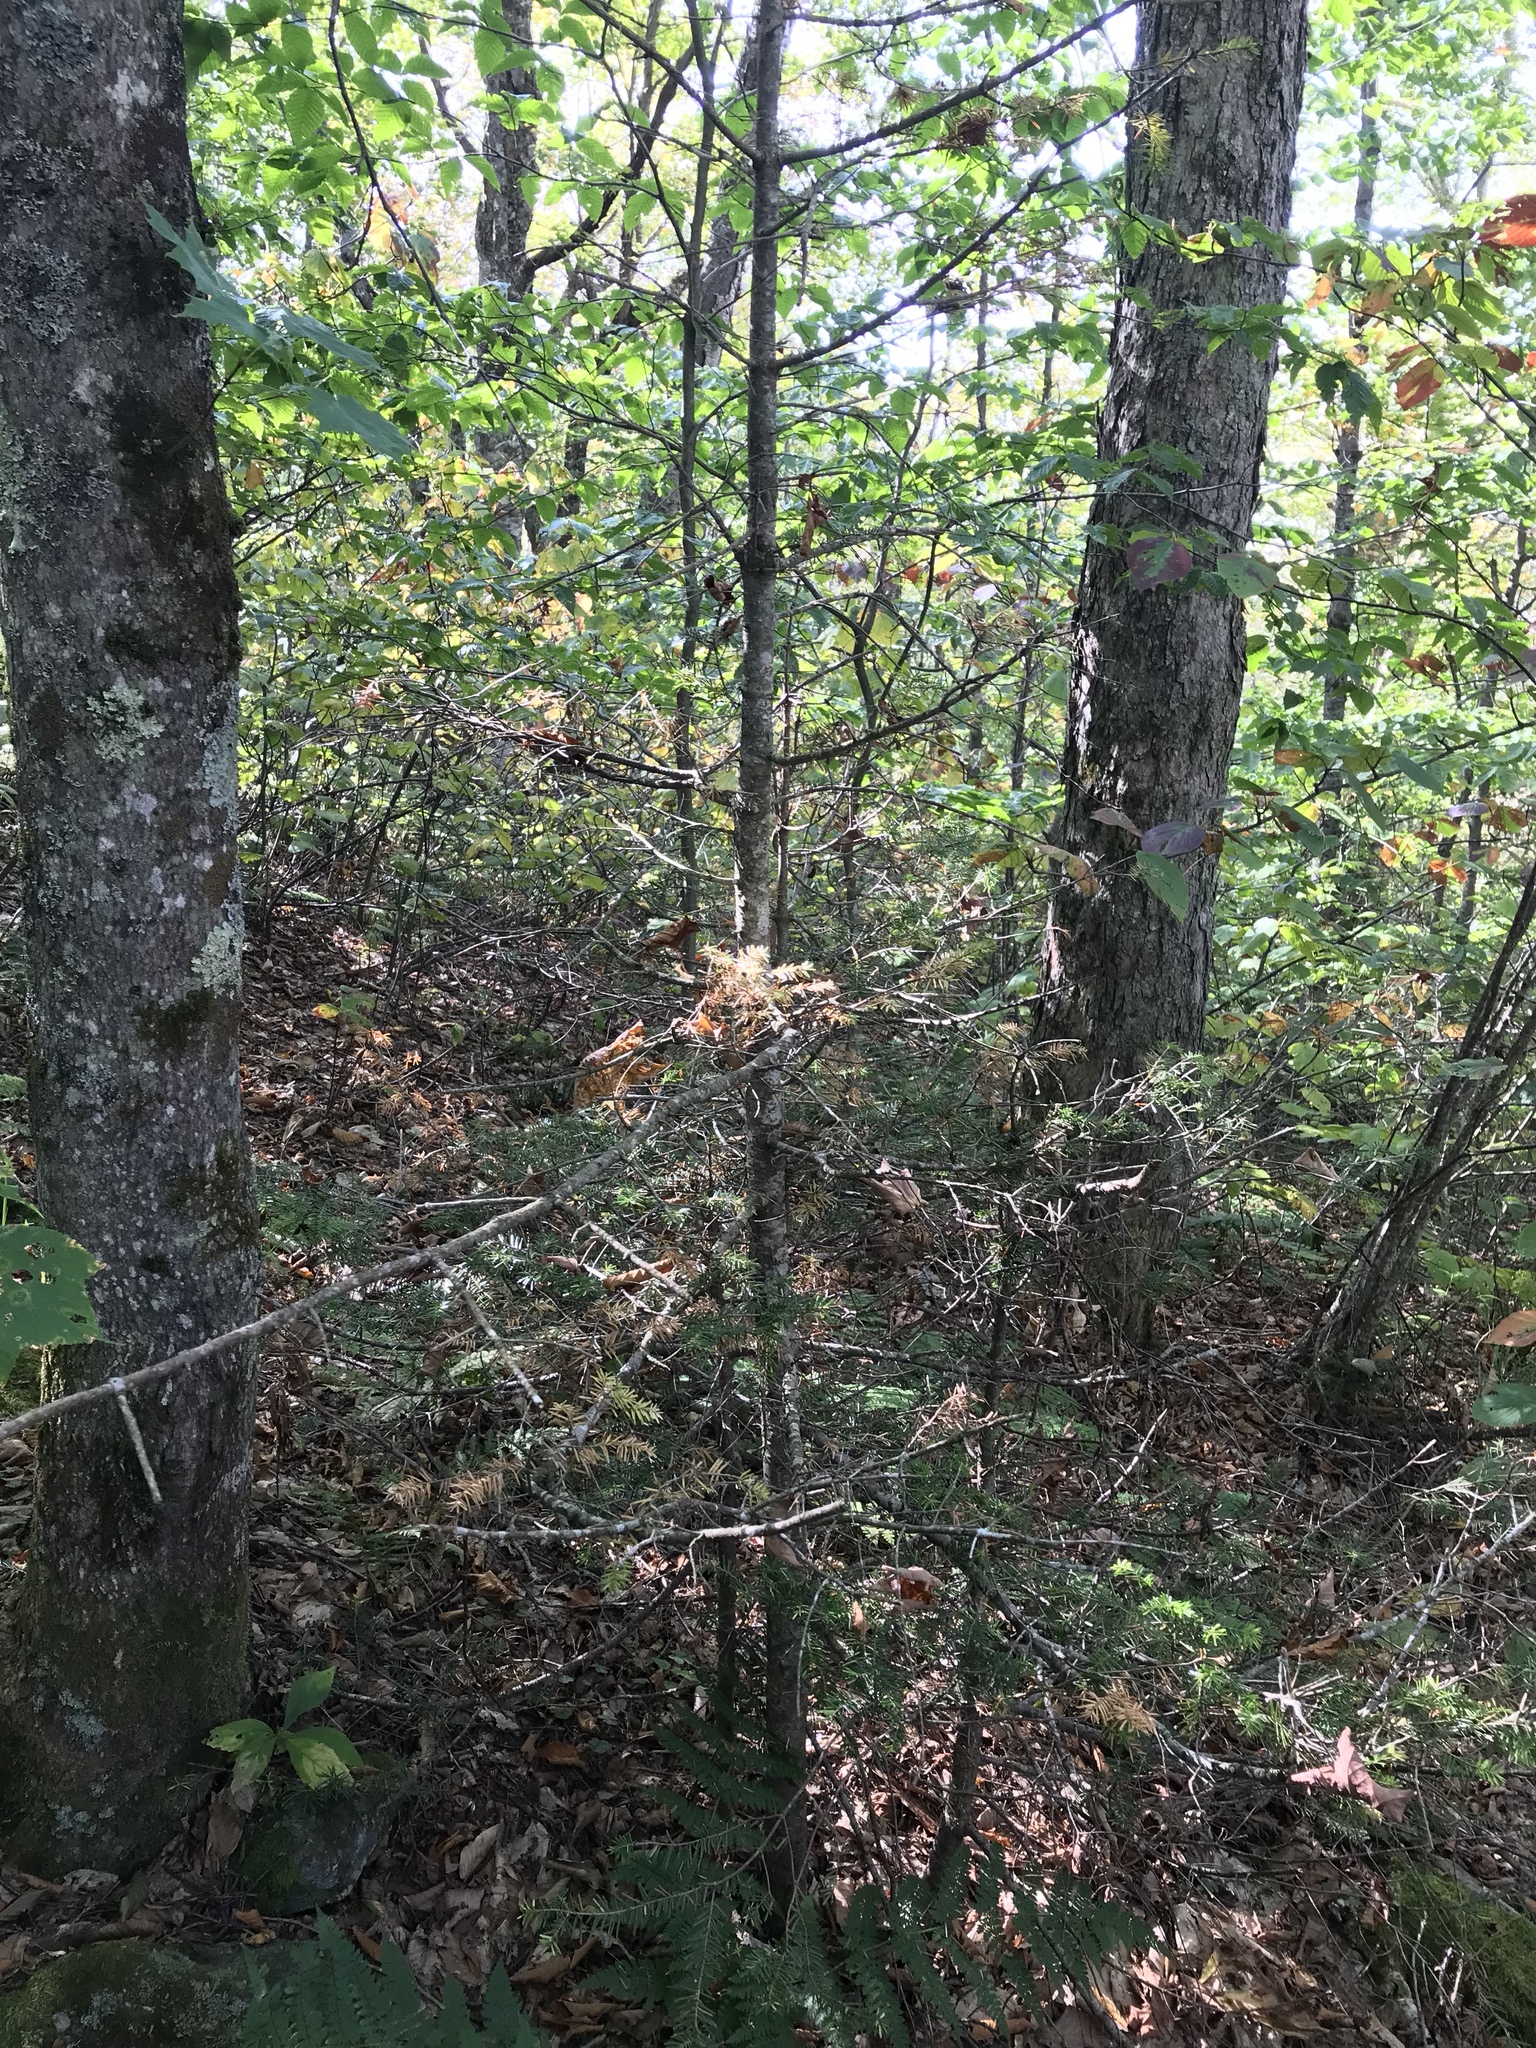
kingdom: Plantae
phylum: Tracheophyta
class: Pinopsida
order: Pinales
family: Pinaceae
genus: Abies
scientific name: Abies balsamea
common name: Balsam fir
